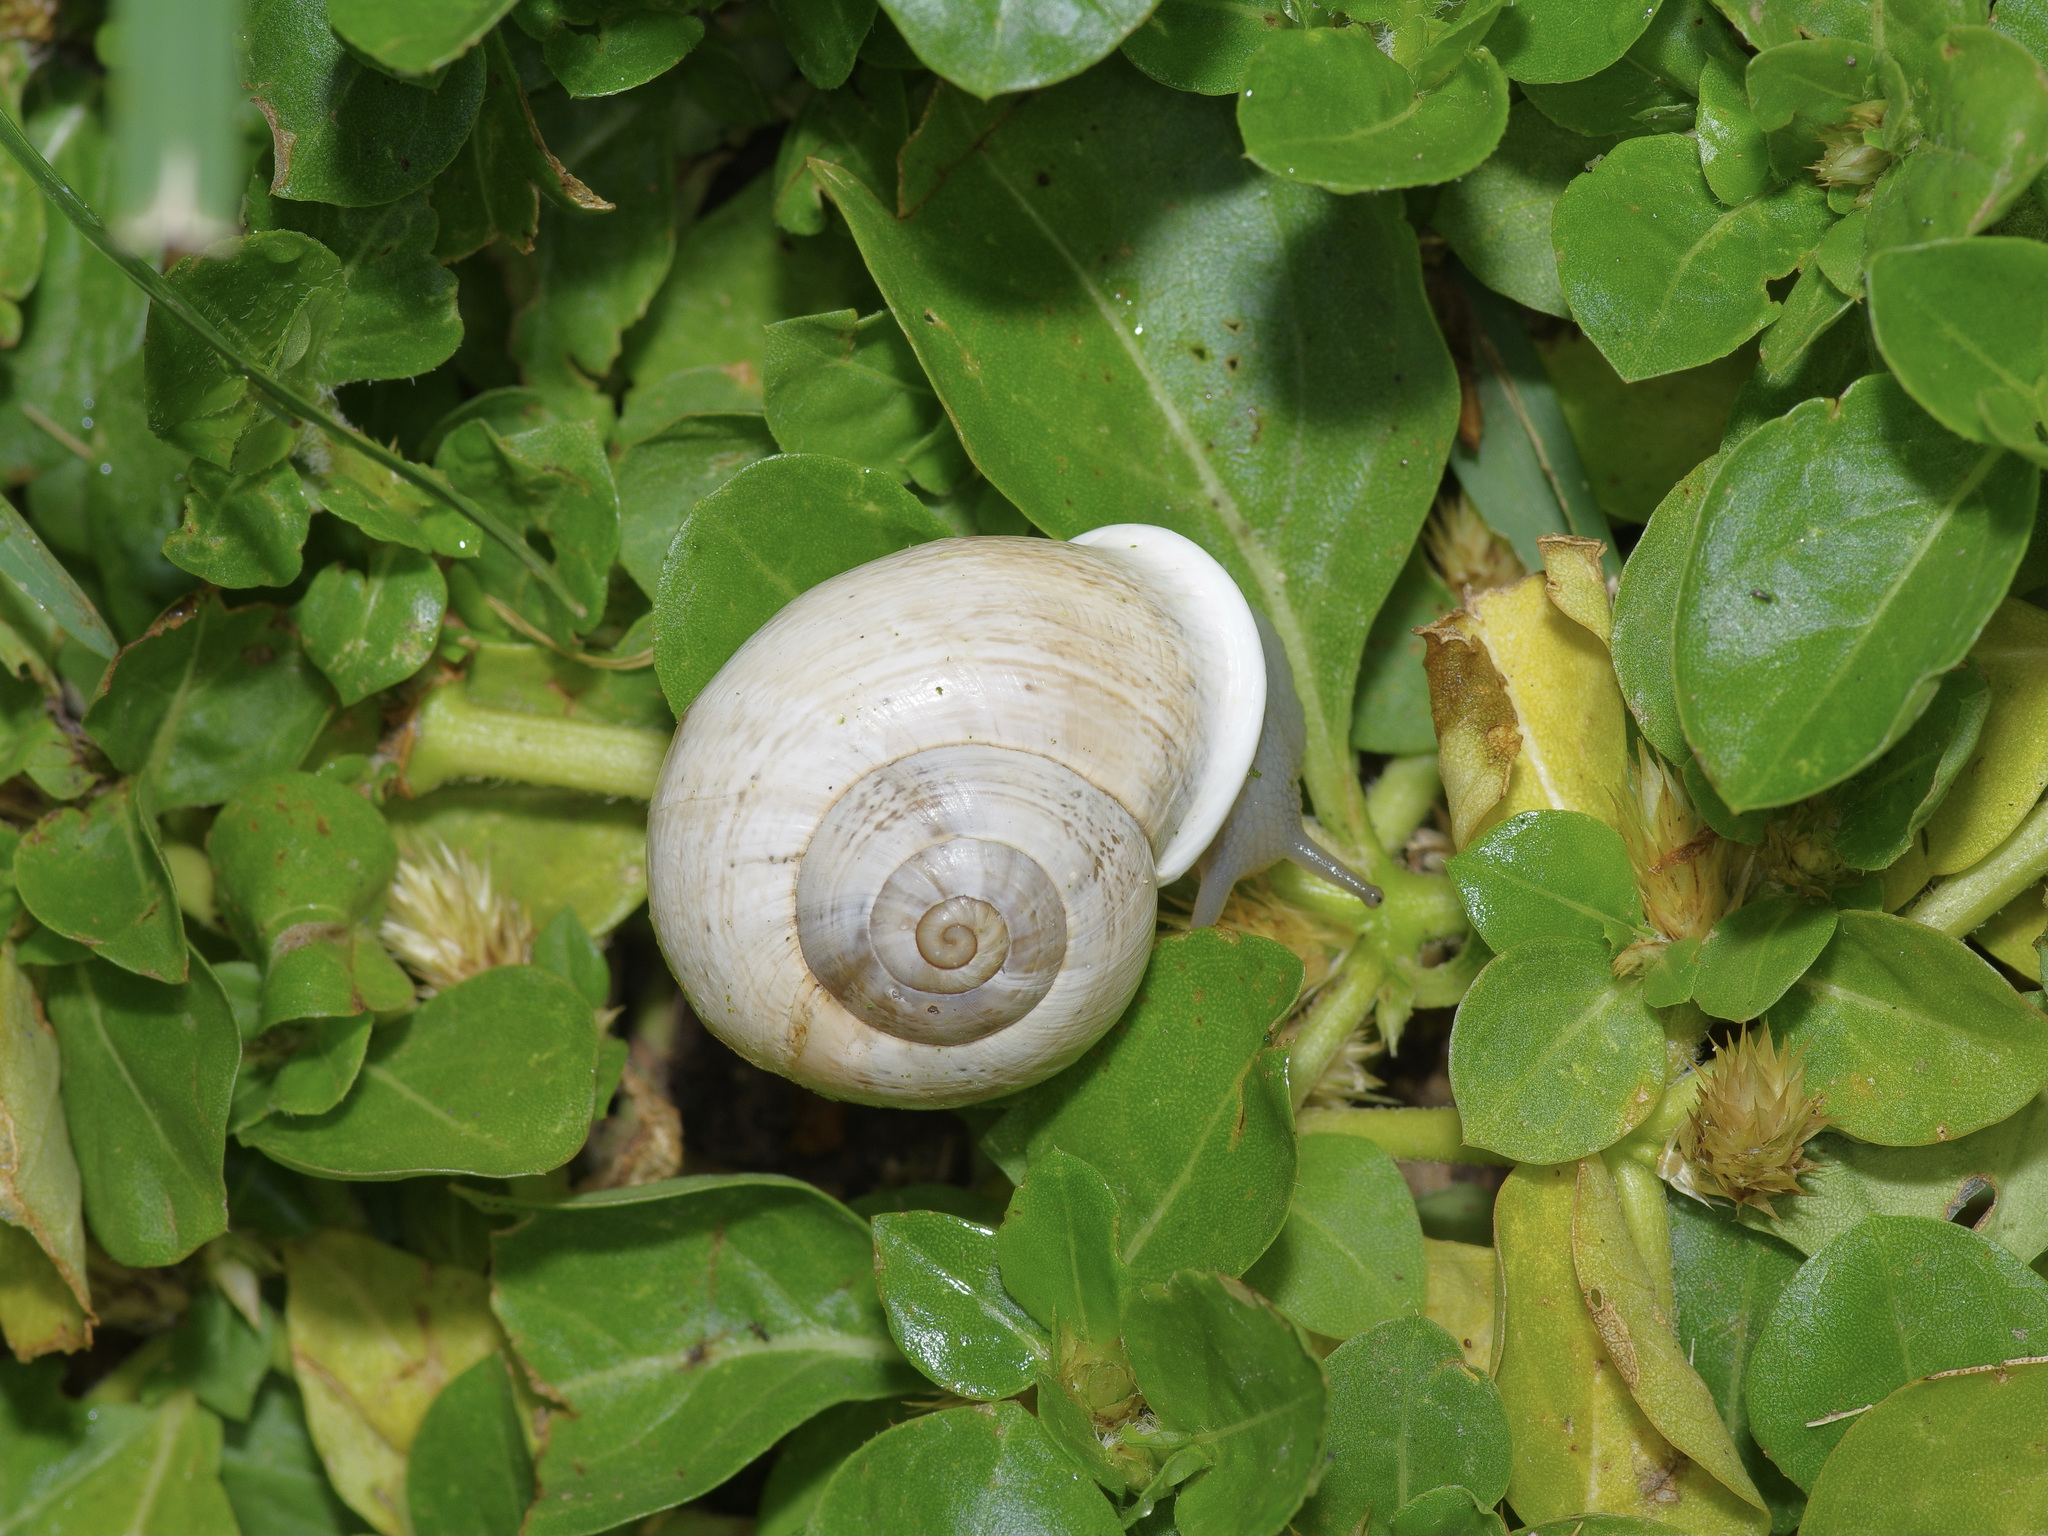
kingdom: Animalia
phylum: Mollusca
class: Gastropoda
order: Stylommatophora
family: Helicidae
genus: Otala
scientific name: Otala lactea
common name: Milk snail
